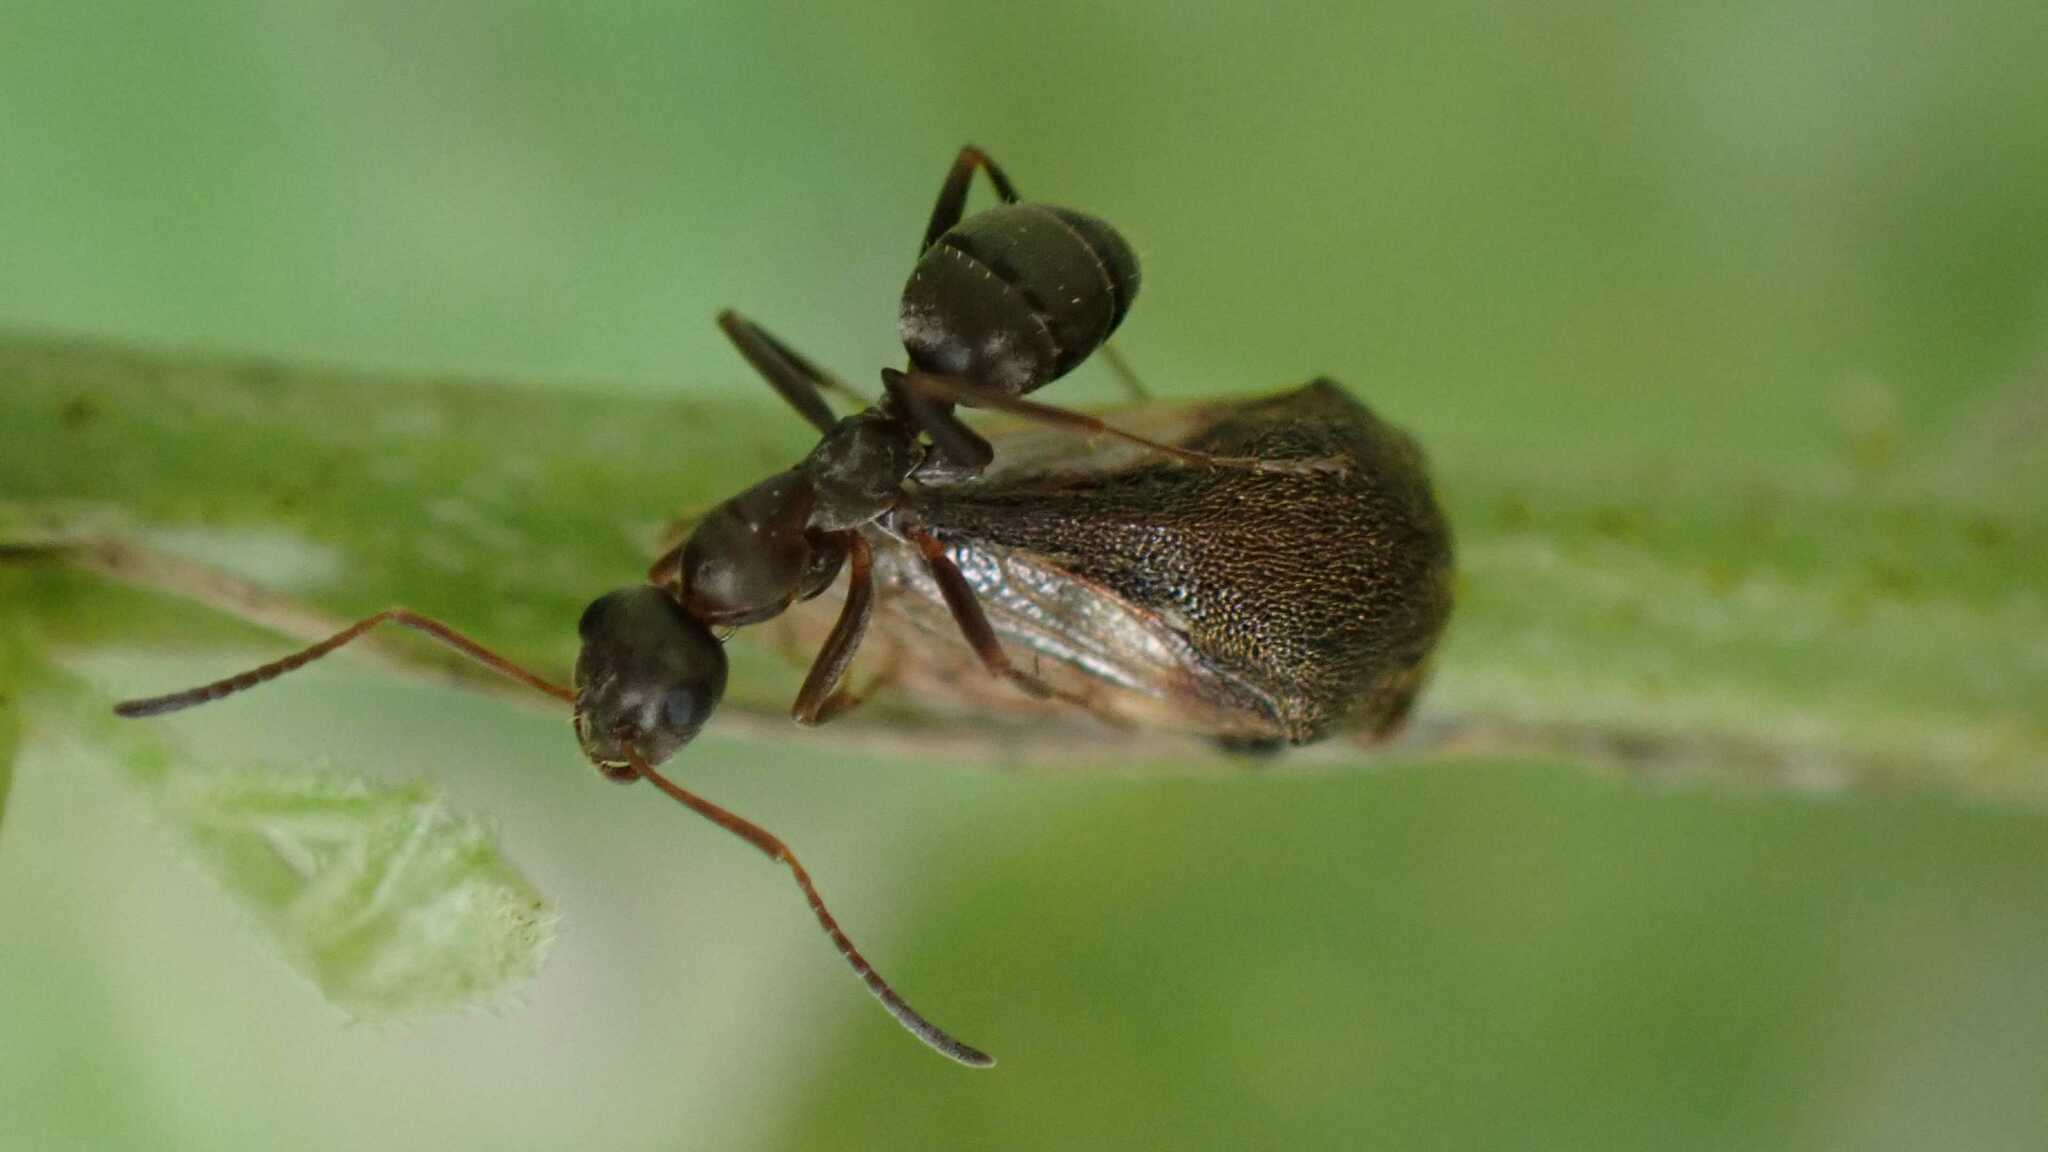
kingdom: Animalia
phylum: Arthropoda
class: Insecta
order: Hemiptera
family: Membracidae
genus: Gargara
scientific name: Gargara genistae
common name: Treehopper
